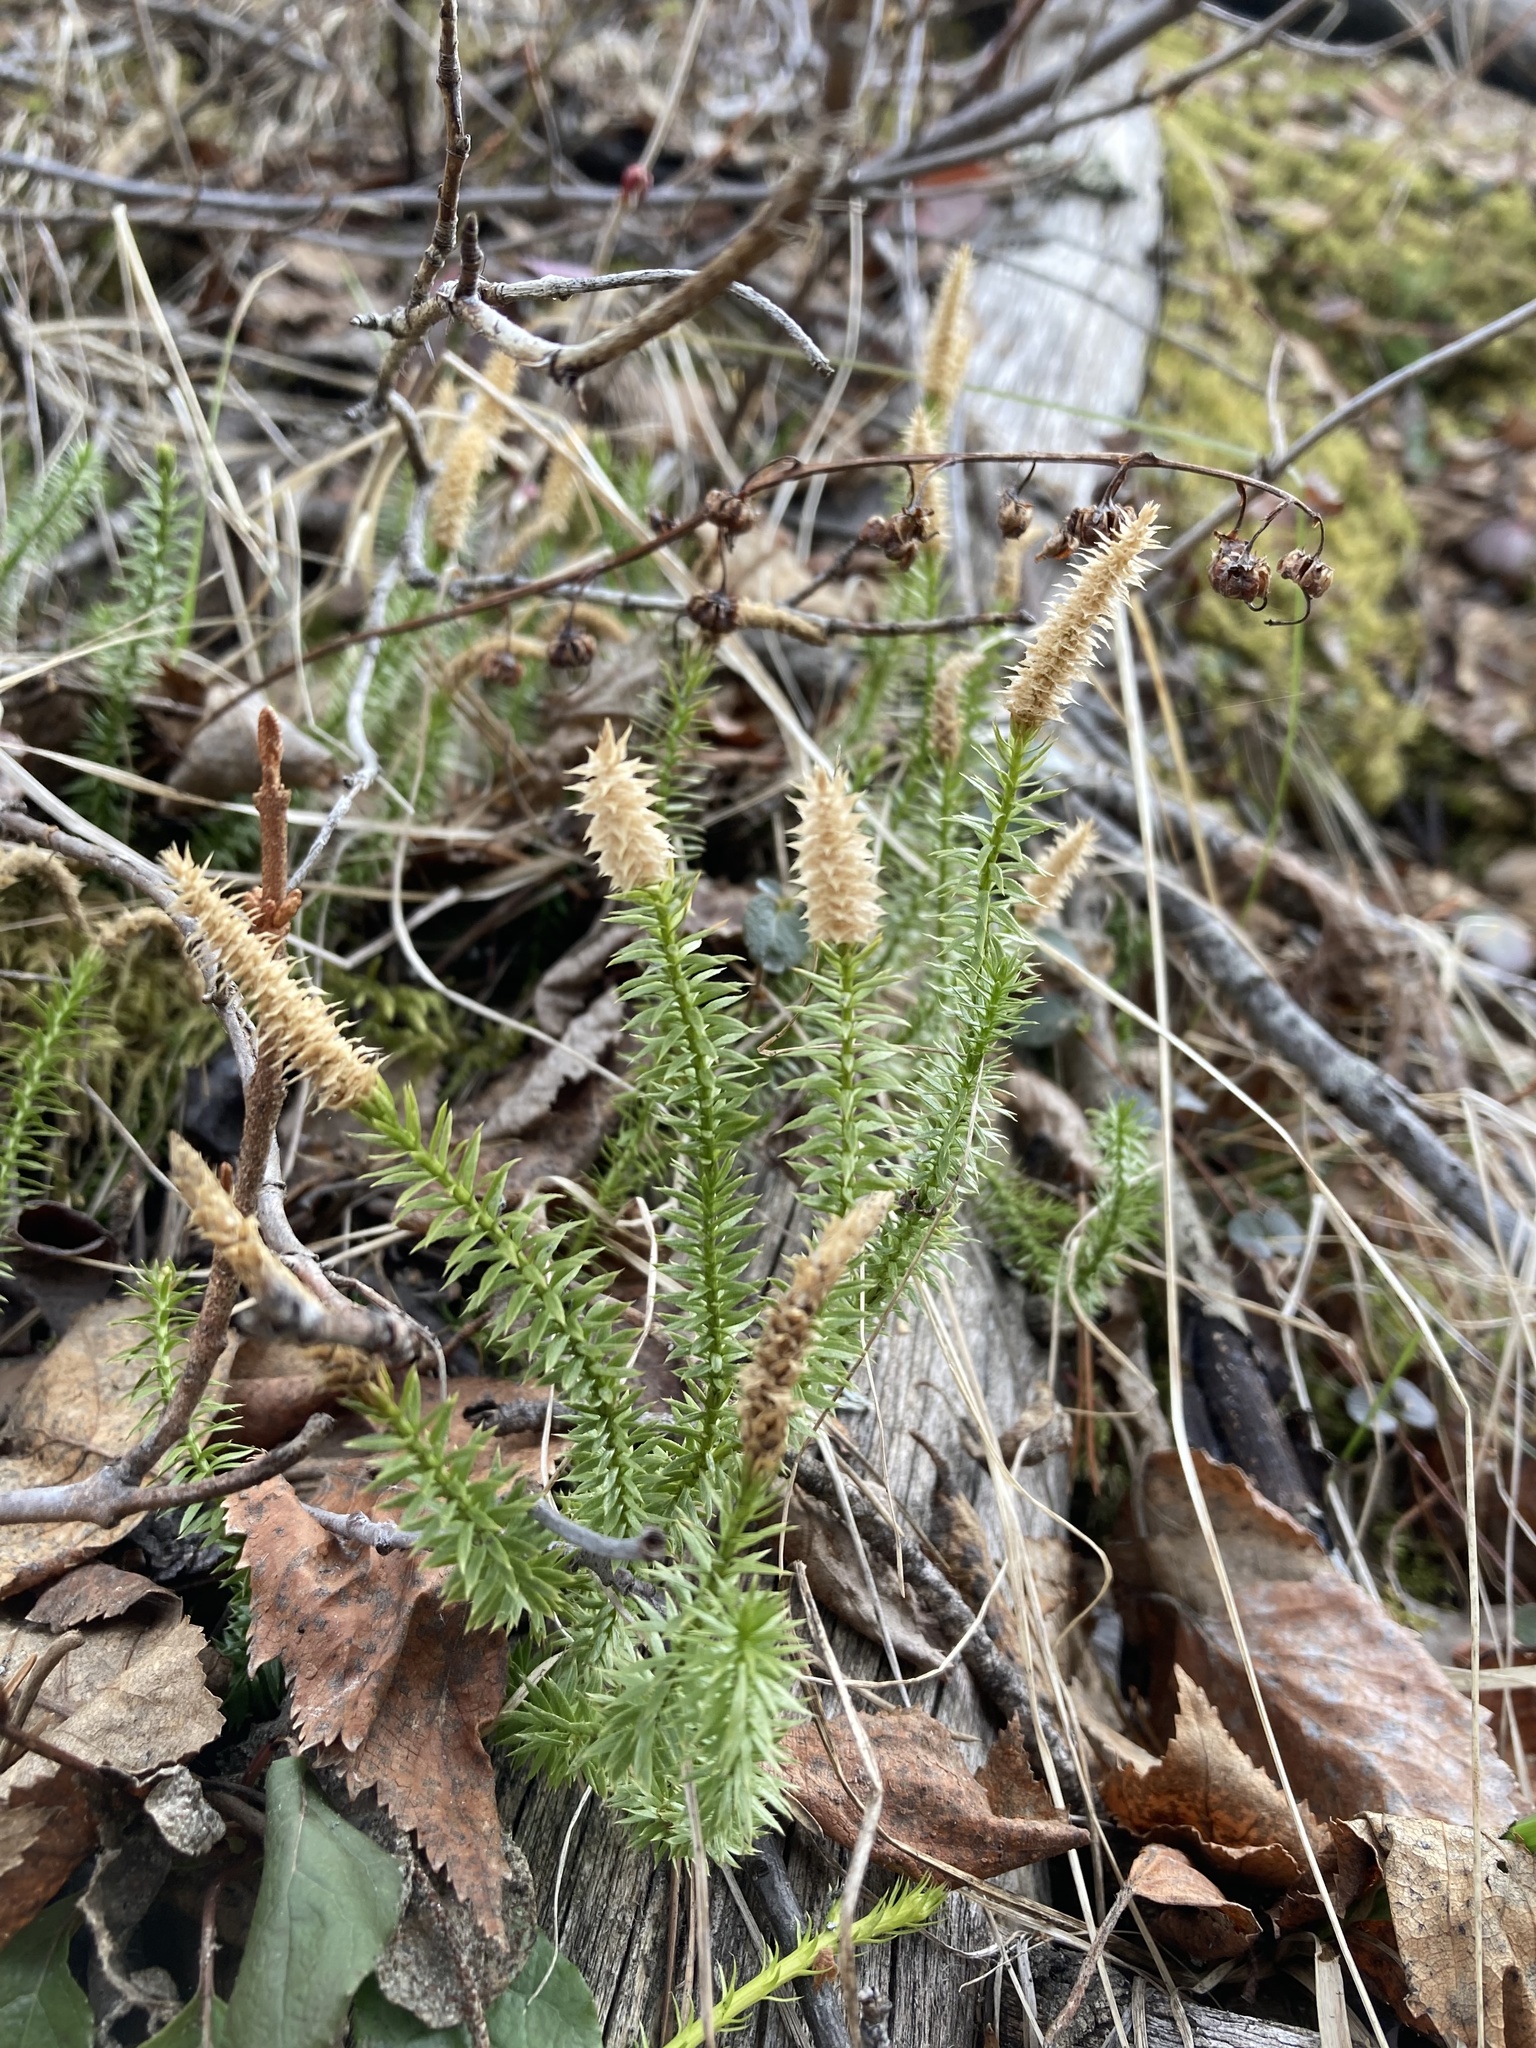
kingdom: Plantae
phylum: Tracheophyta
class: Lycopodiopsida
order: Lycopodiales
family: Lycopodiaceae
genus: Spinulum
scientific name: Spinulum annotinum
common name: Interrupted club-moss
